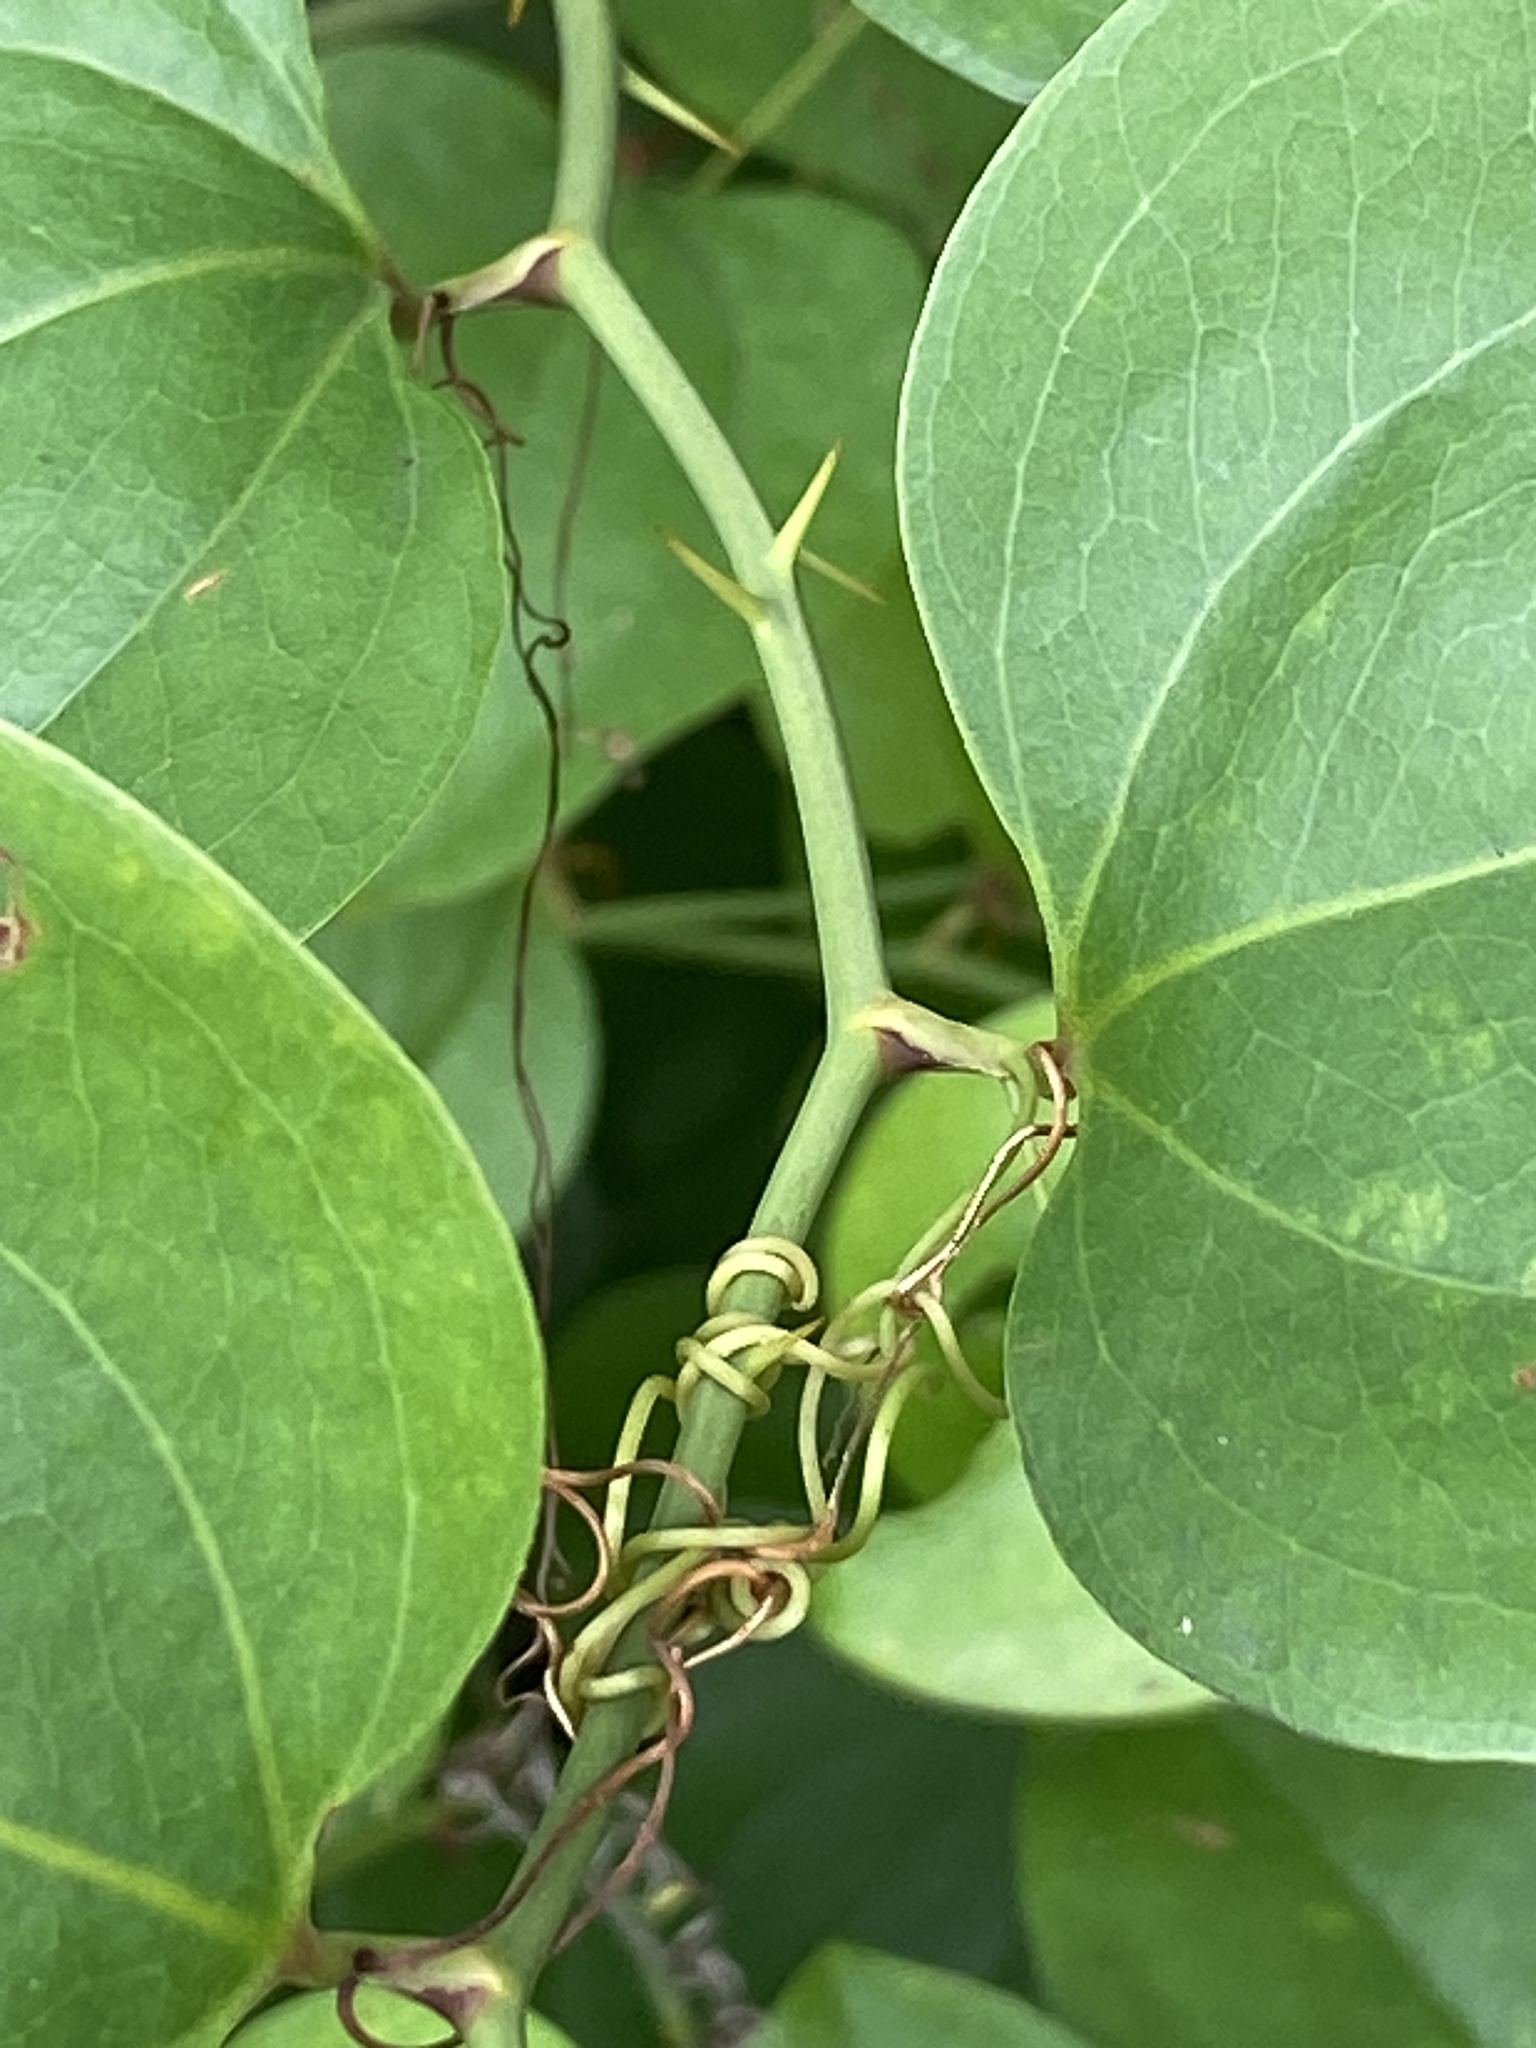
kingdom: Plantae
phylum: Tracheophyta
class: Liliopsida
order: Liliales
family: Smilacaceae
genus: Smilax
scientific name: Smilax rotundifolia
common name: Bullbriar
